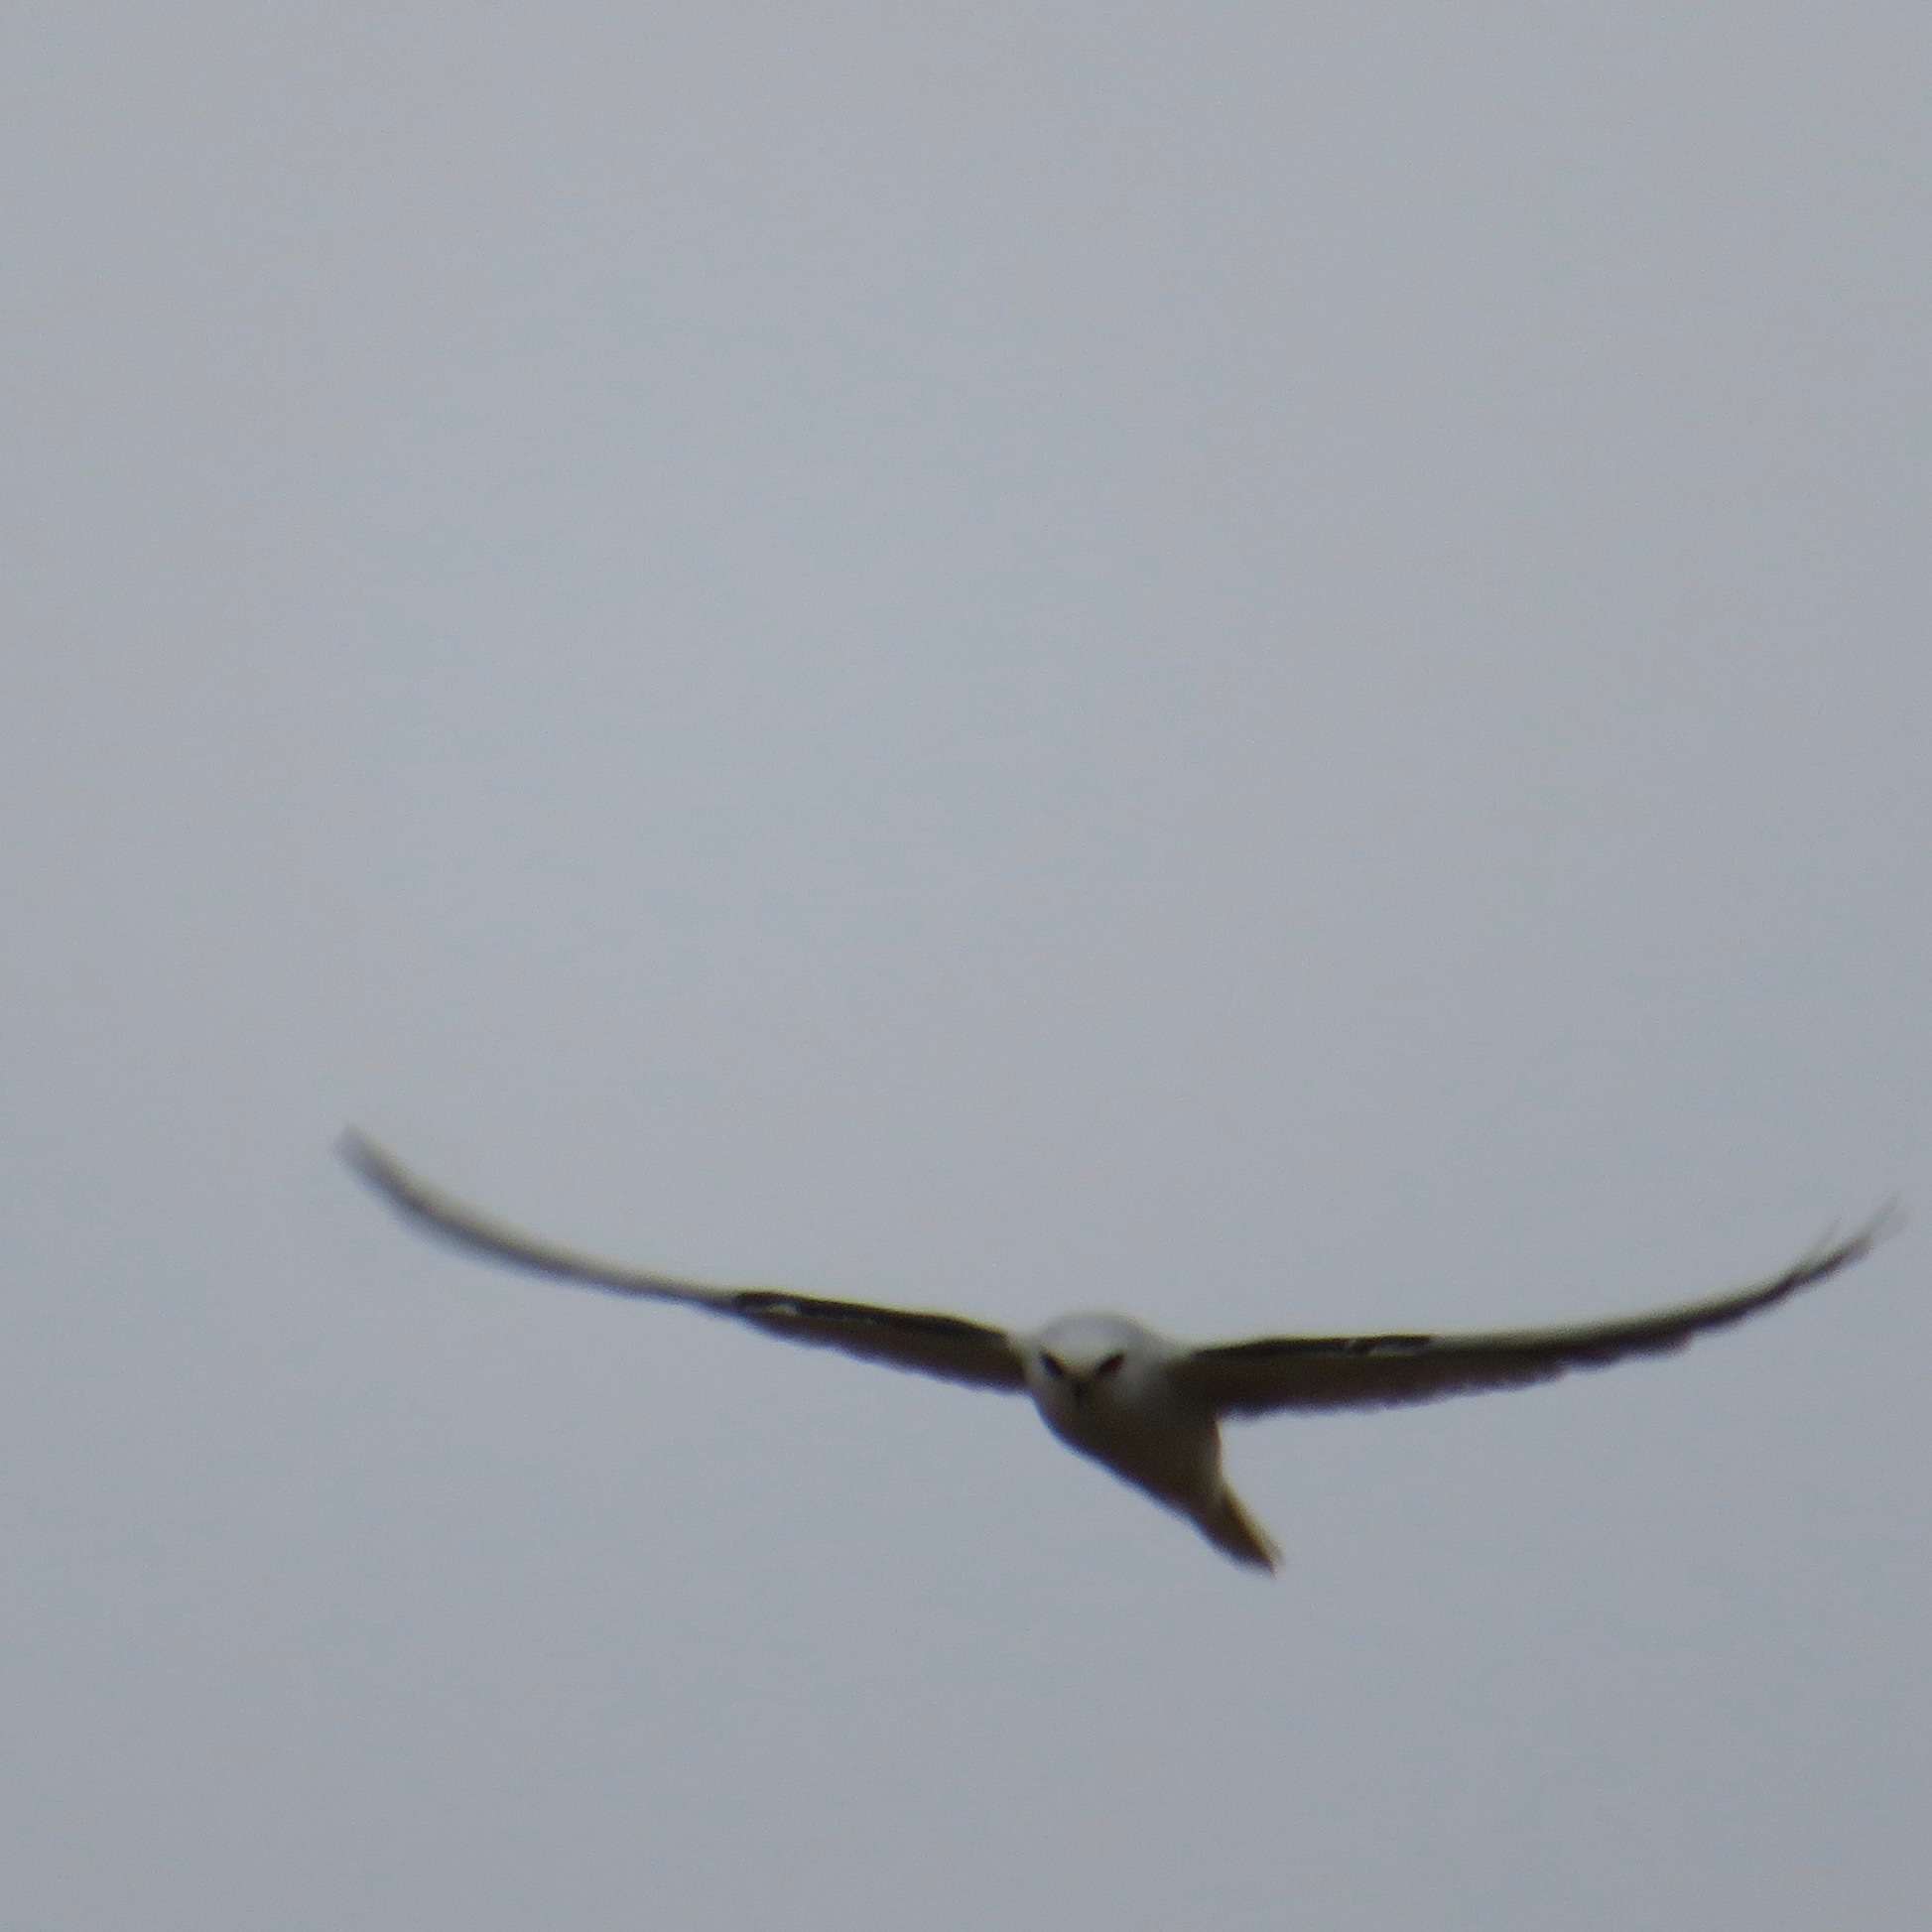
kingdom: Animalia
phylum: Chordata
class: Aves
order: Accipitriformes
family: Accipitridae
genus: Elanus
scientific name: Elanus leucurus
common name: White-tailed kite
